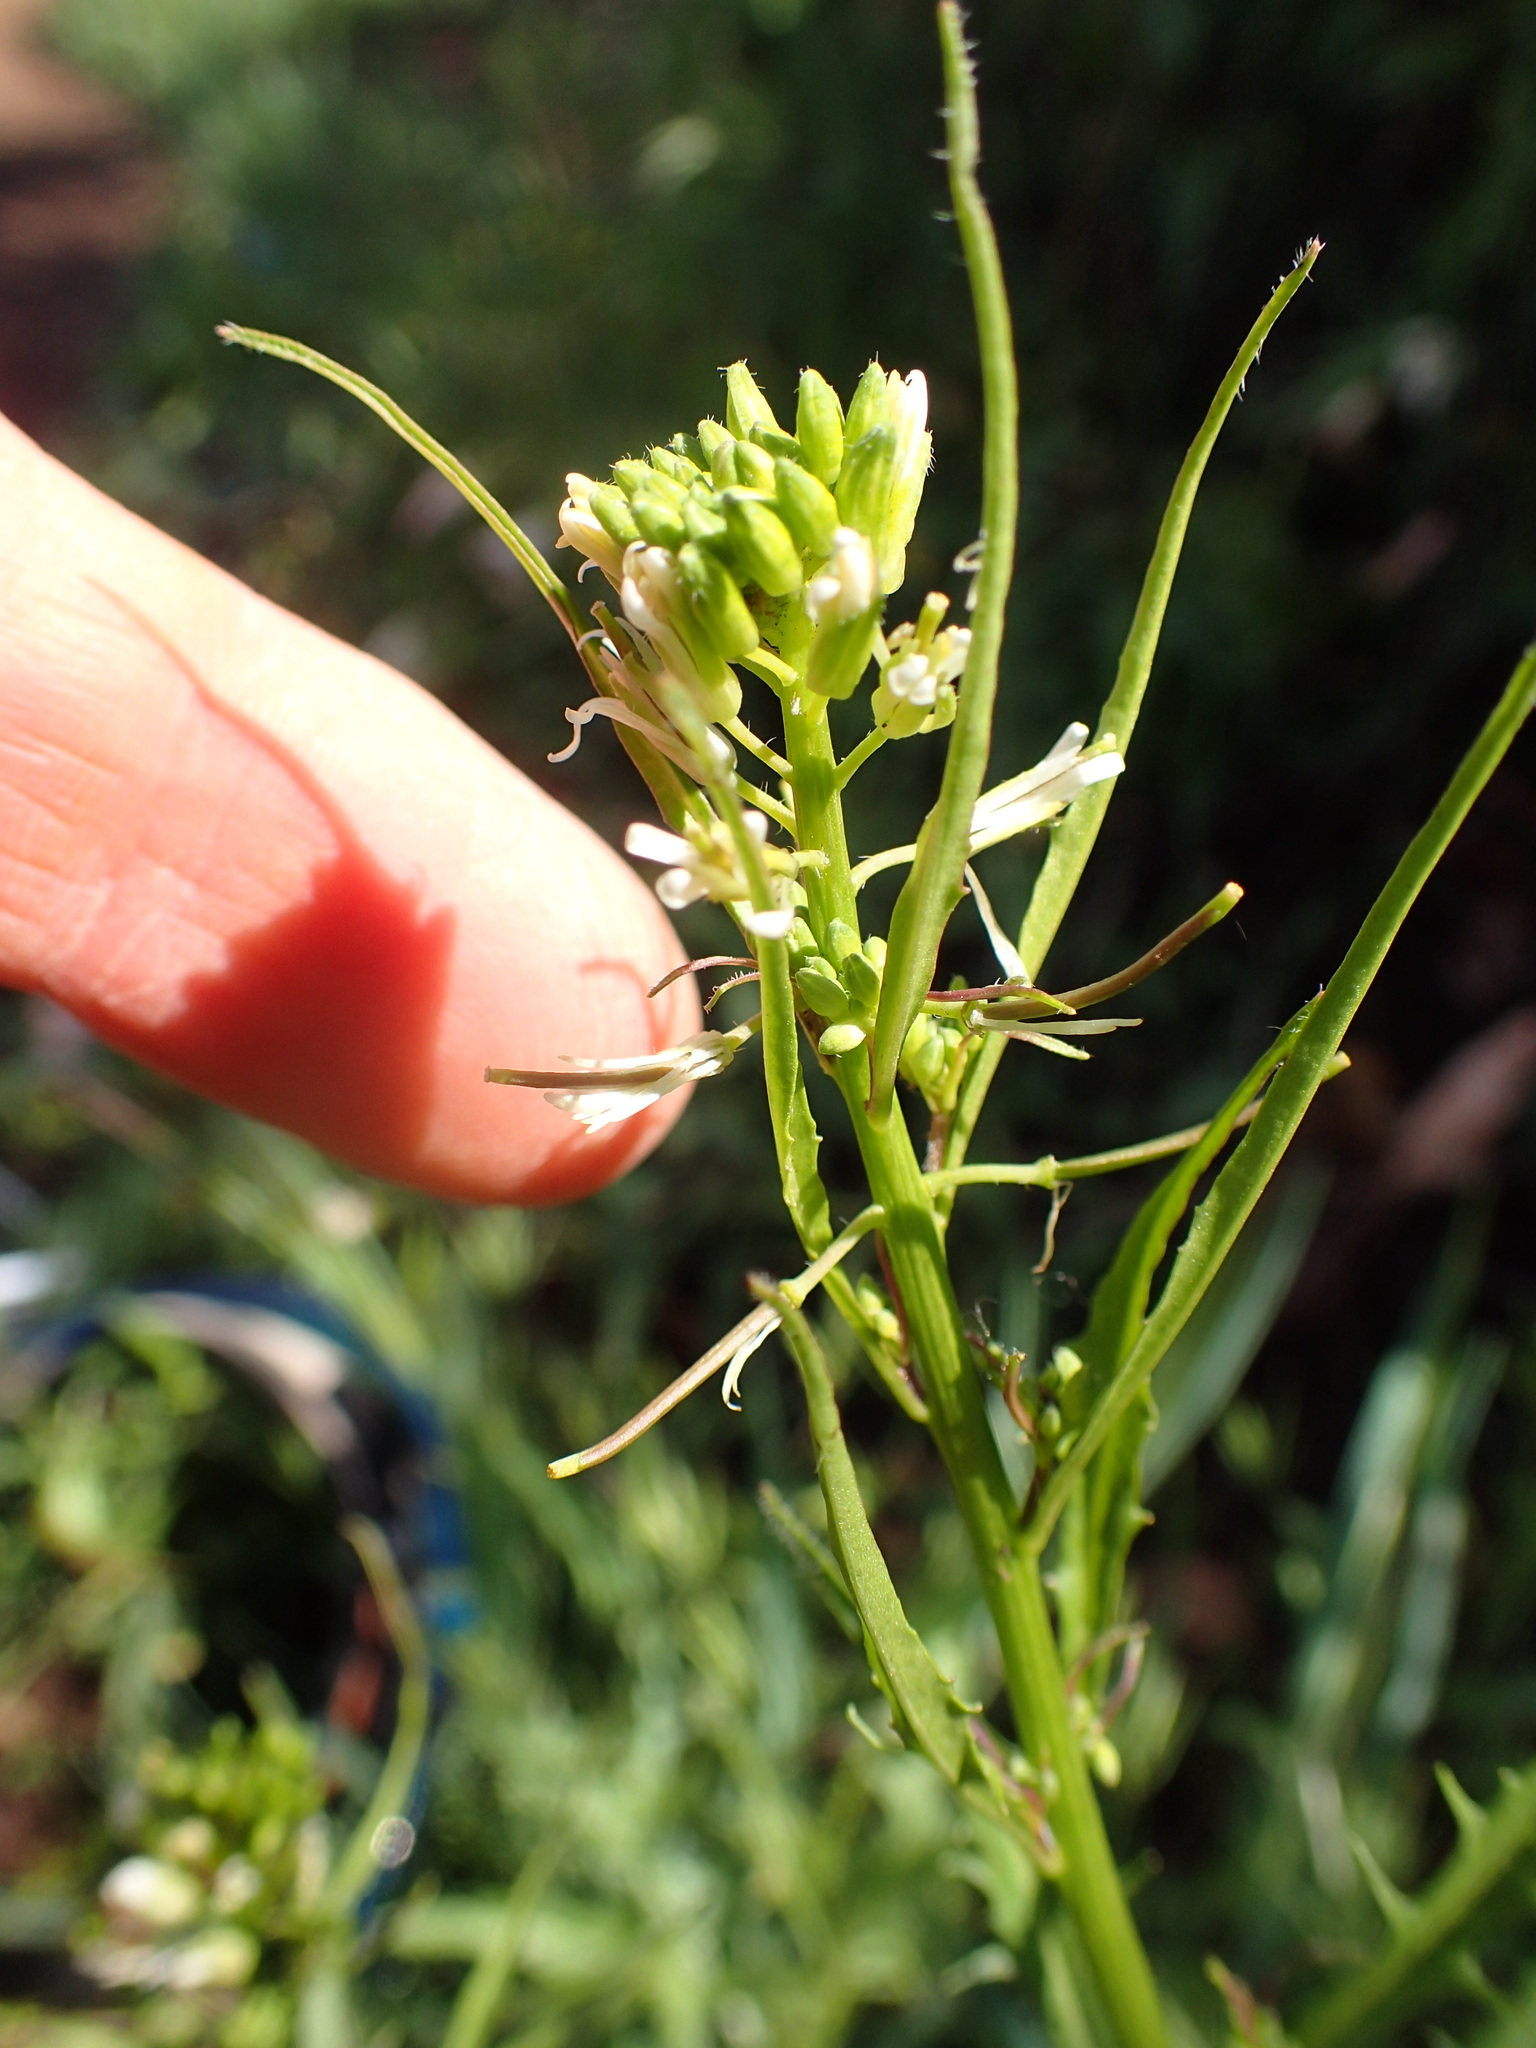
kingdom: Plantae
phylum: Tracheophyta
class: Magnoliopsida
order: Brassicales
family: Brassicaceae
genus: Streptanthus
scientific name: Streptanthus lasiophyllus
